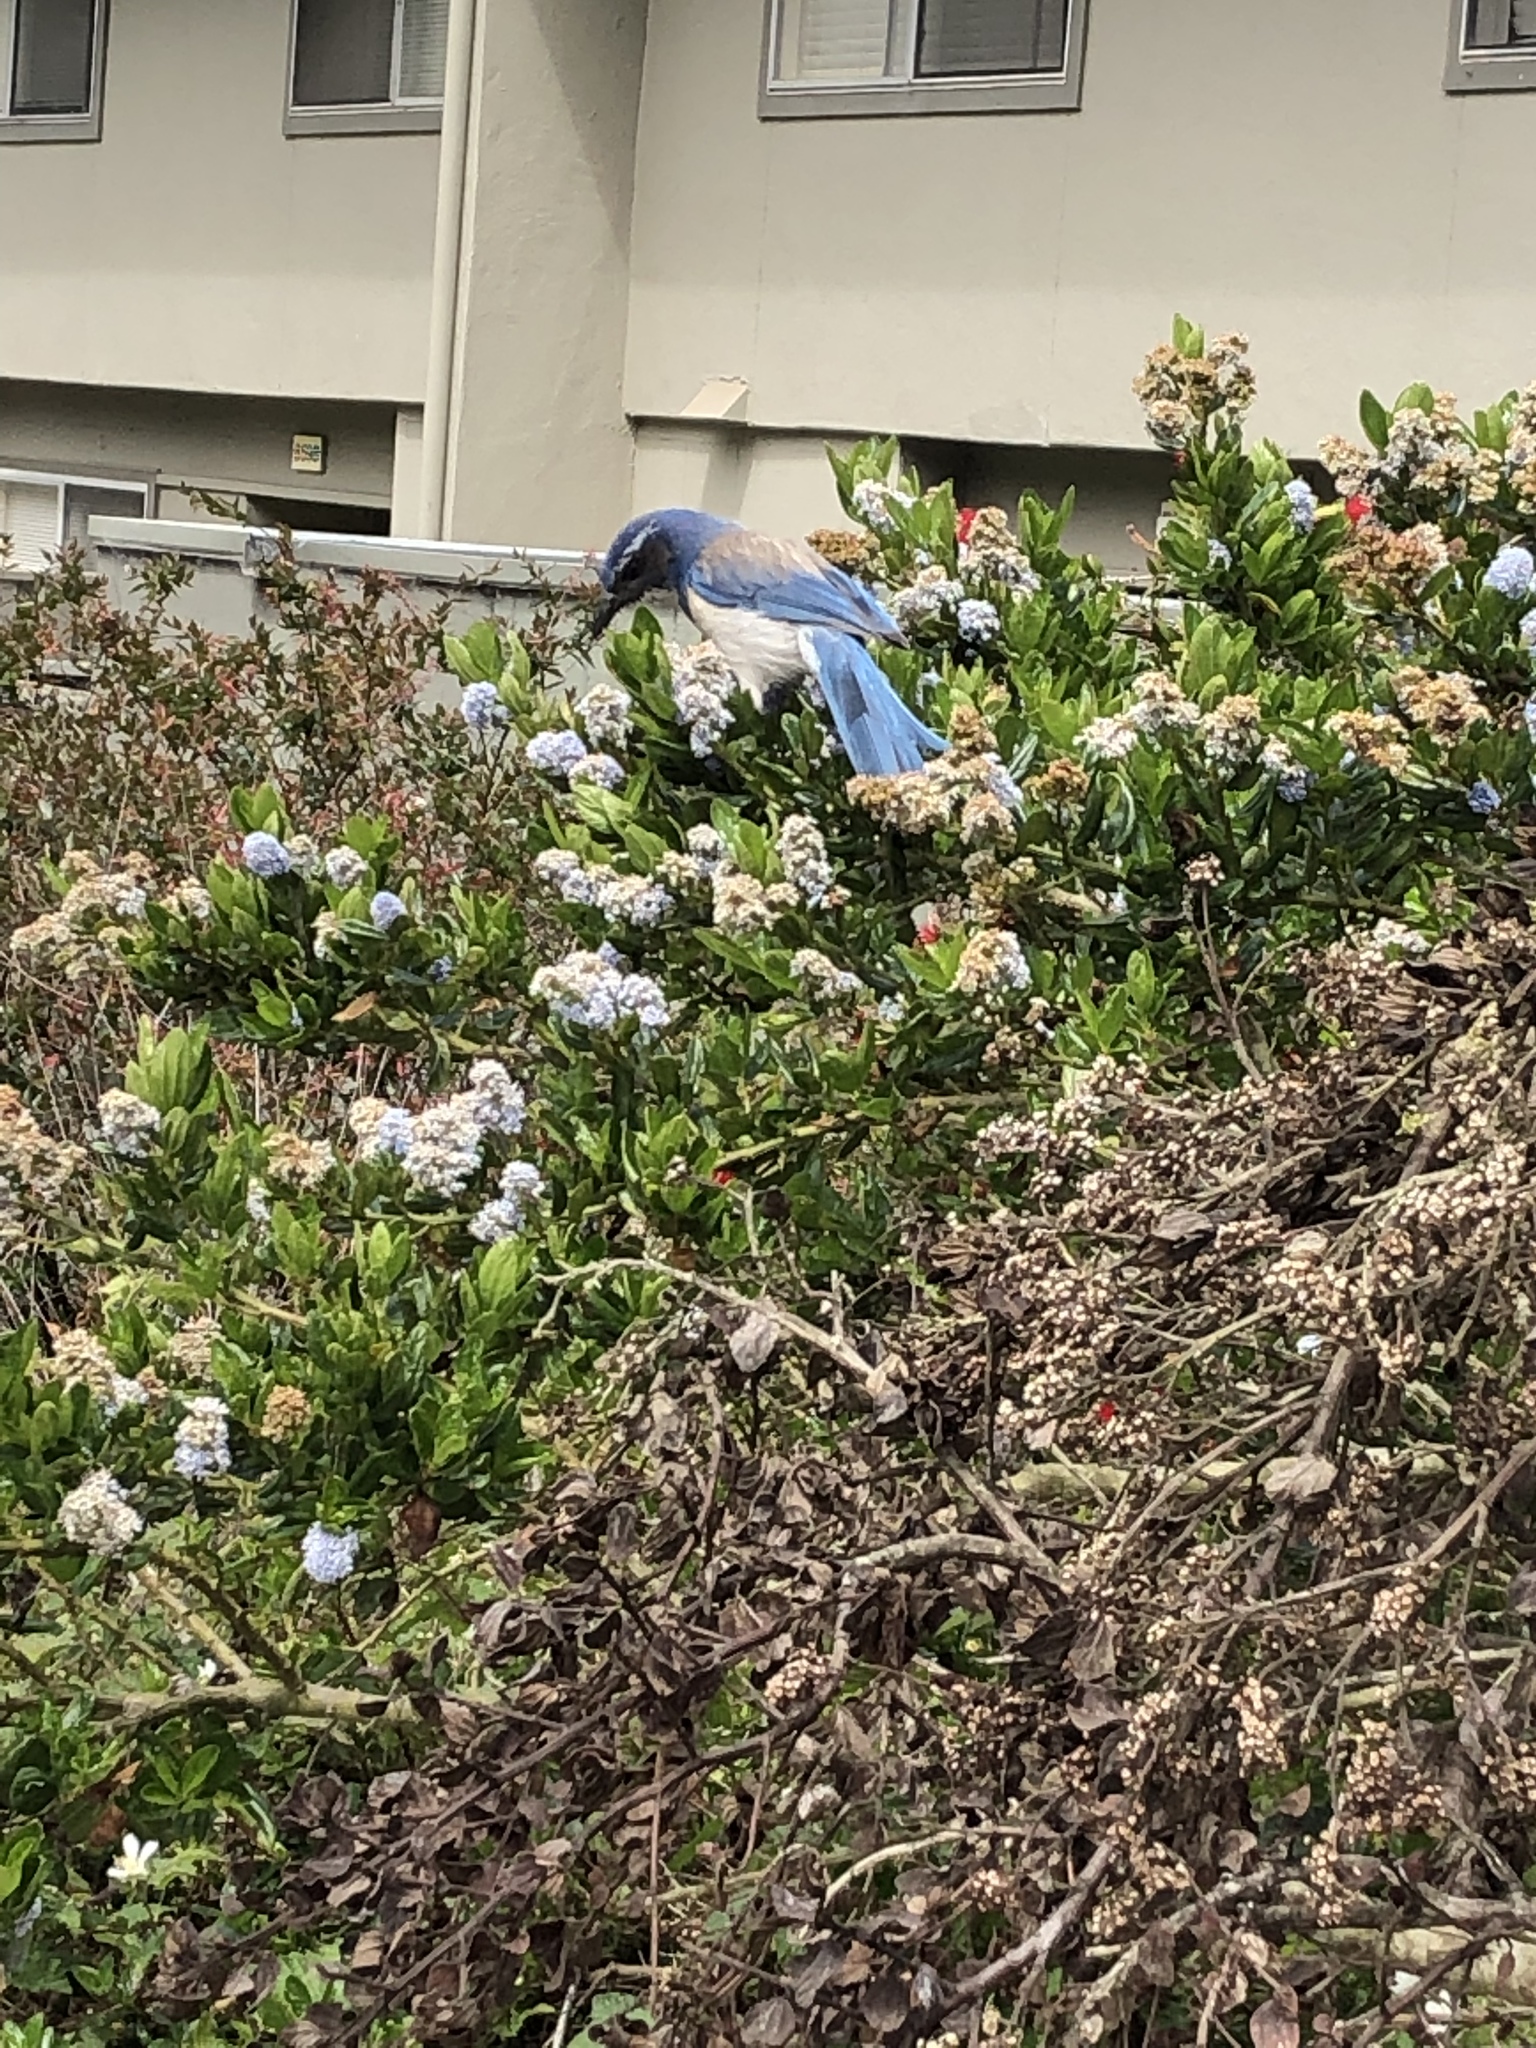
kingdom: Animalia
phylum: Chordata
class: Aves
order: Passeriformes
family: Corvidae
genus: Aphelocoma
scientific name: Aphelocoma californica
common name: California scrub-jay
